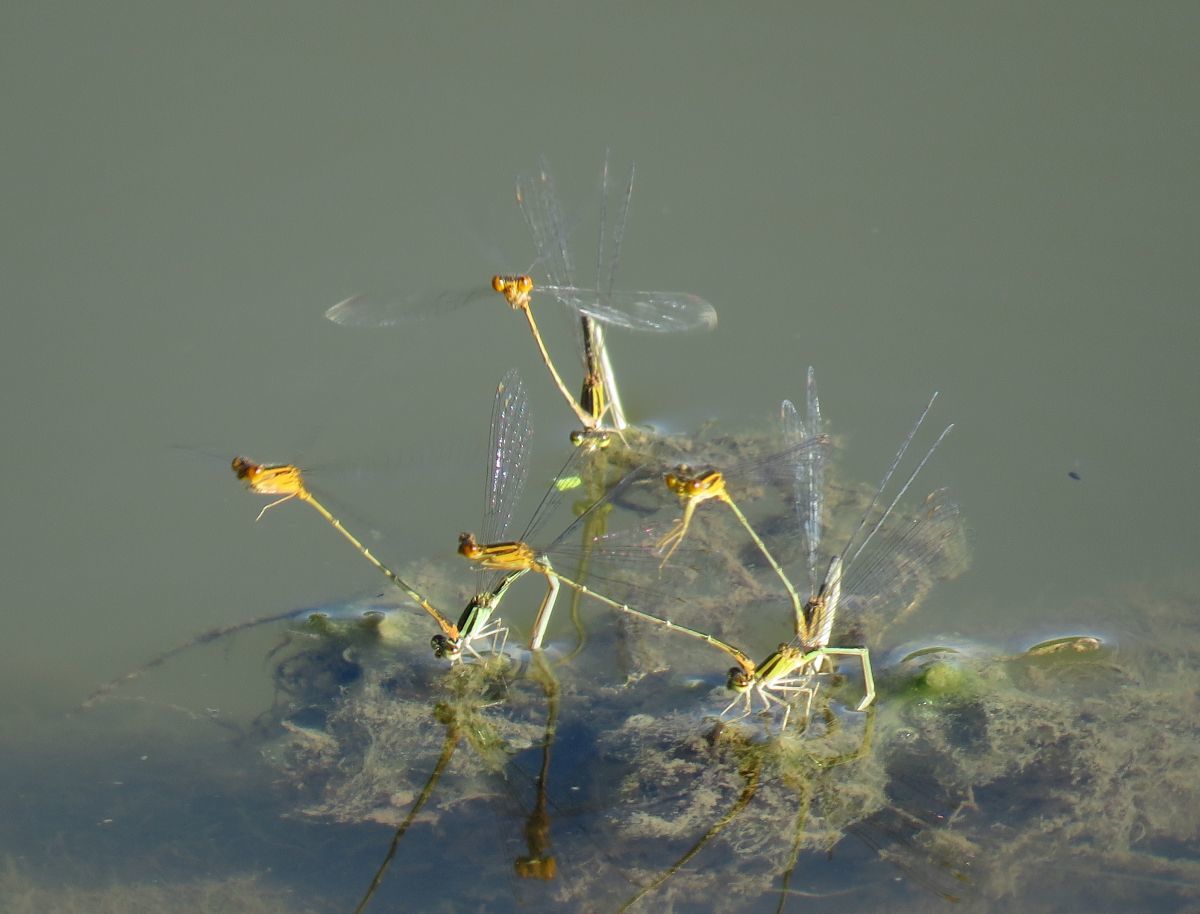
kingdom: Animalia
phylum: Arthropoda
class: Insecta
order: Odonata
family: Coenagrionidae
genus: Enallagma
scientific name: Enallagma signatum
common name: Orange bluet
